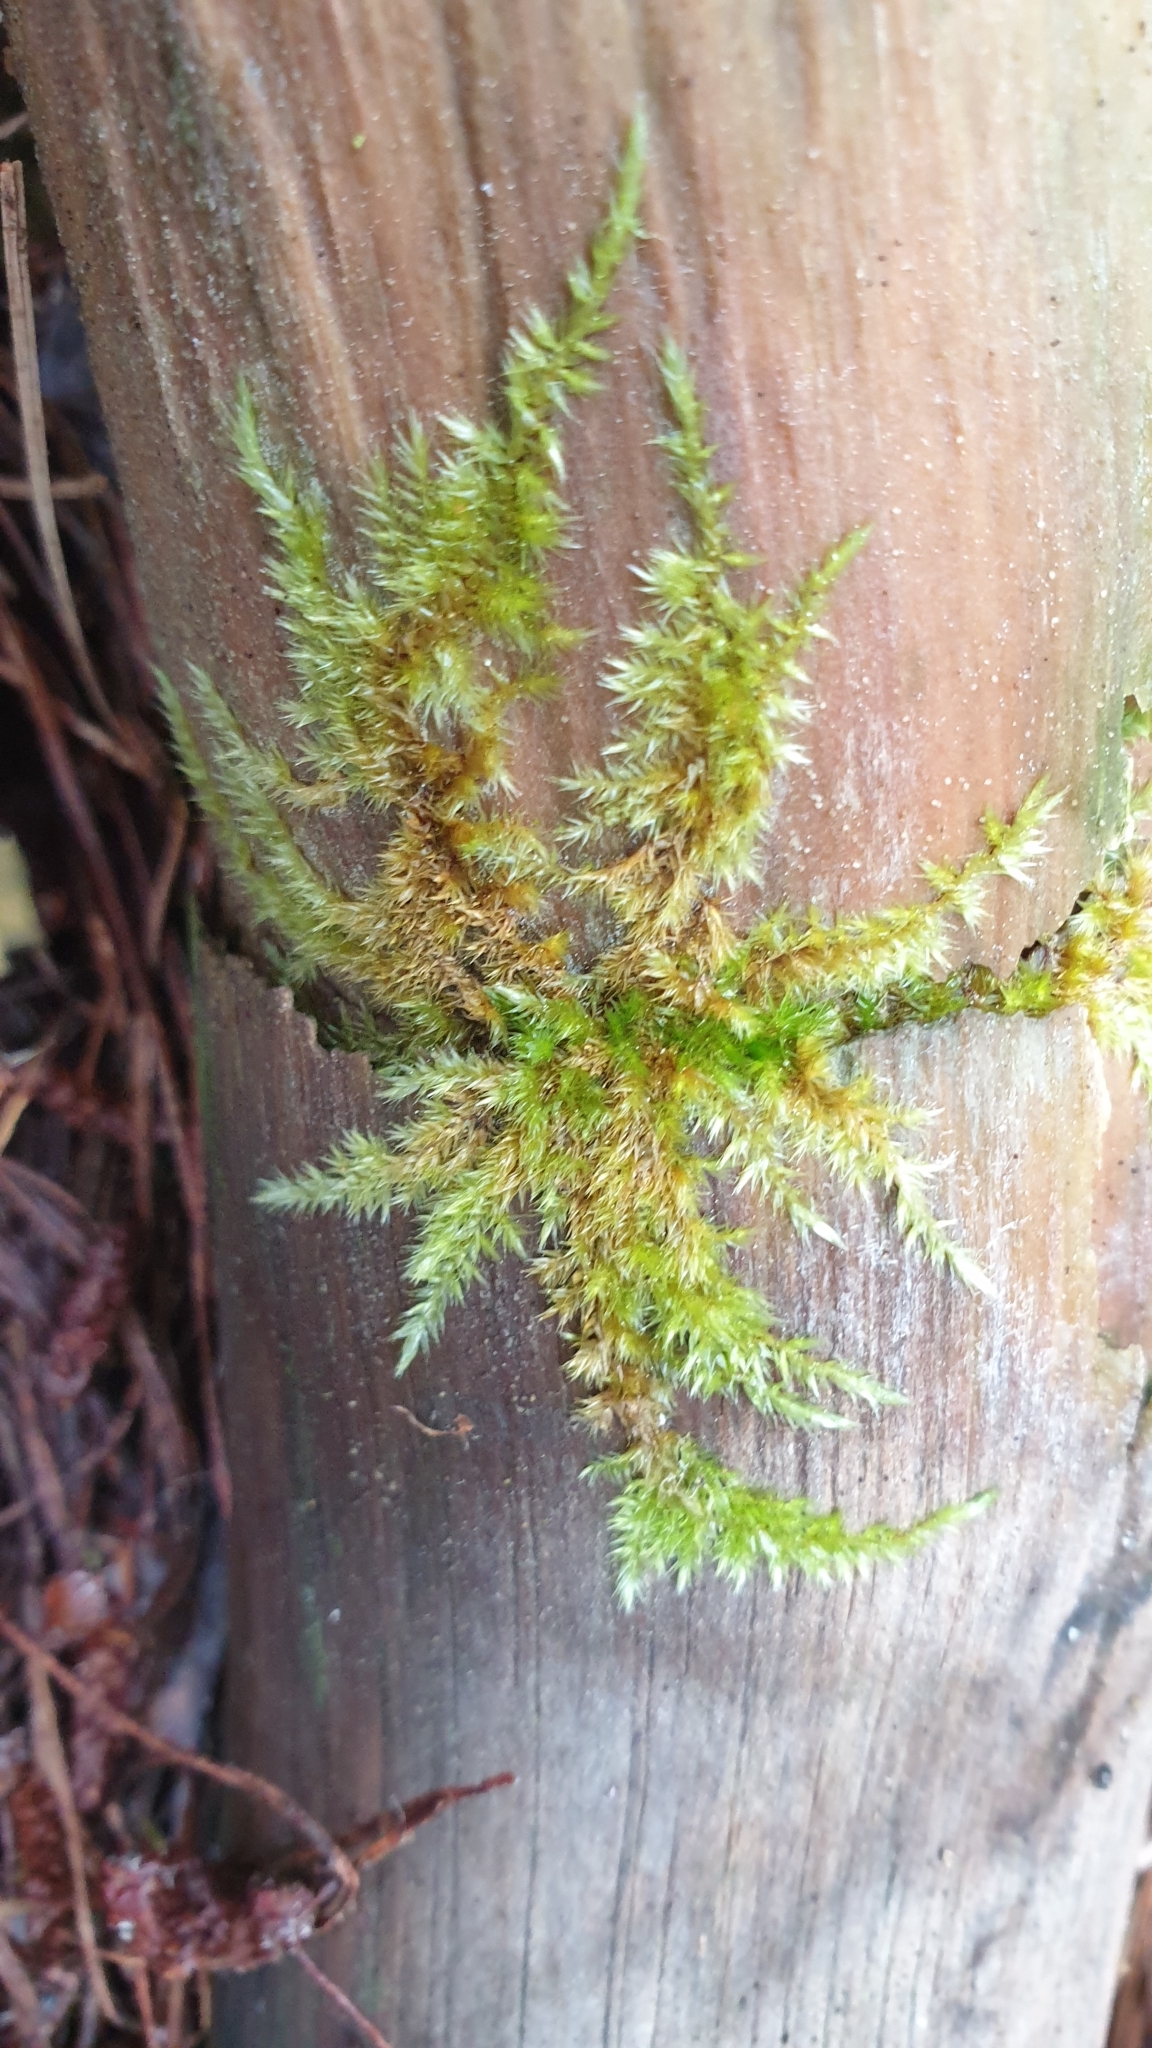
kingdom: Plantae
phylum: Bryophyta
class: Bryopsida
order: Hypnales
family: Sematophyllaceae
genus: Sematophyllum
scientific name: Sematophyllum homomallum
